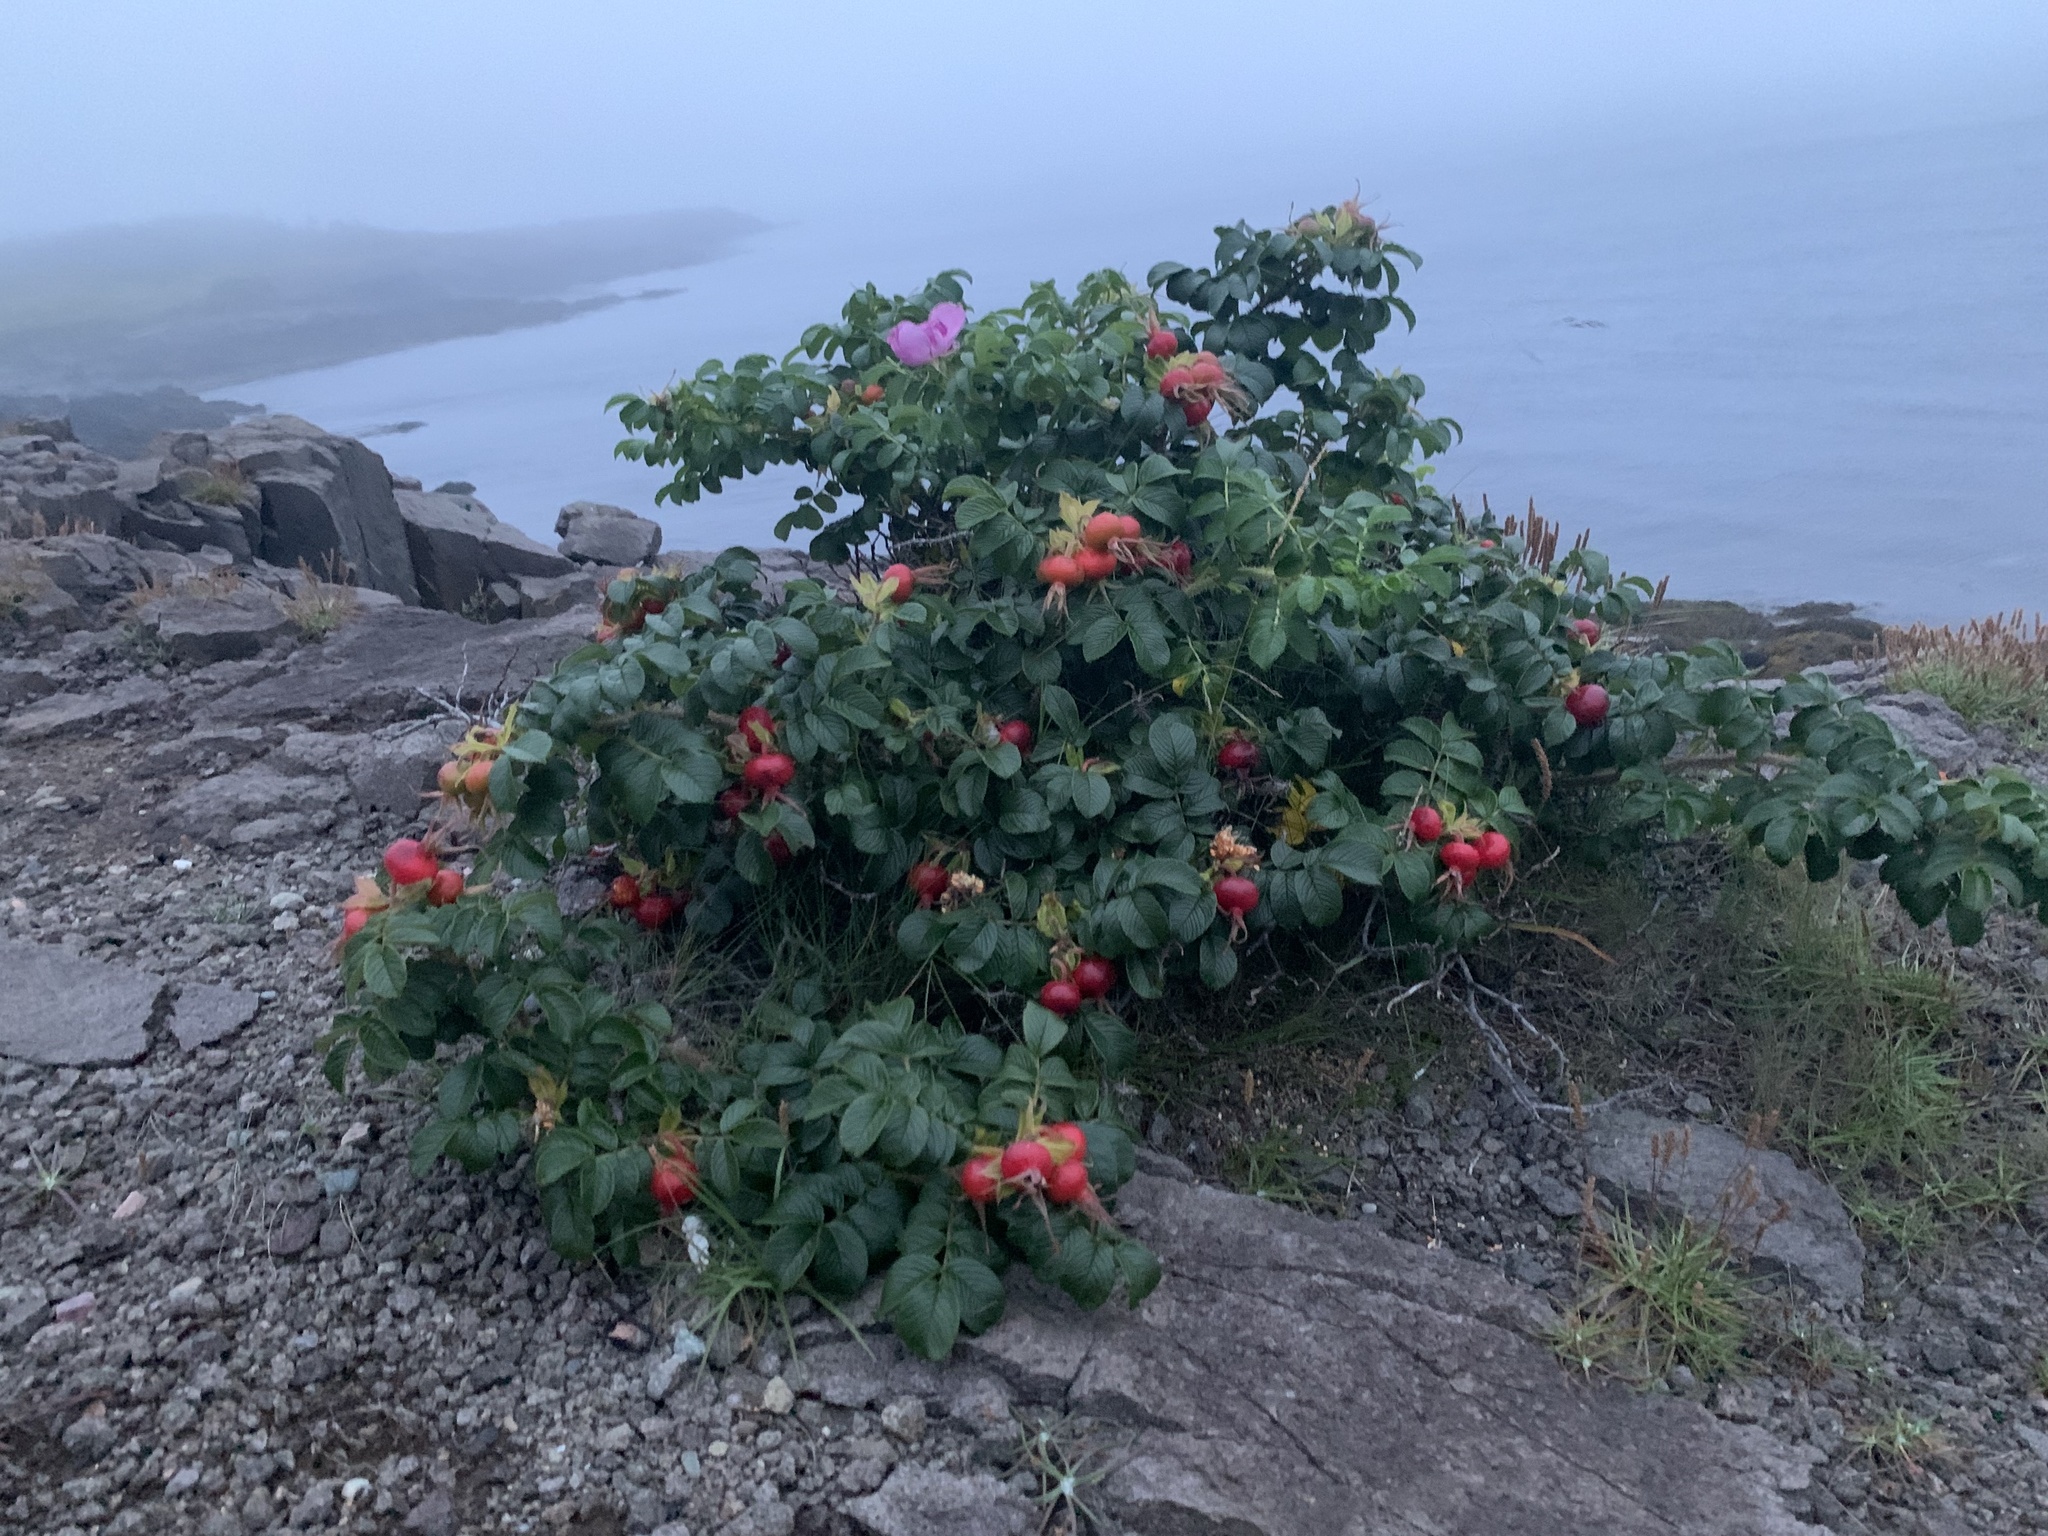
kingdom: Plantae
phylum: Tracheophyta
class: Magnoliopsida
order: Rosales
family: Rosaceae
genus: Rosa
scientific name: Rosa rugosa
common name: Japanese rose
